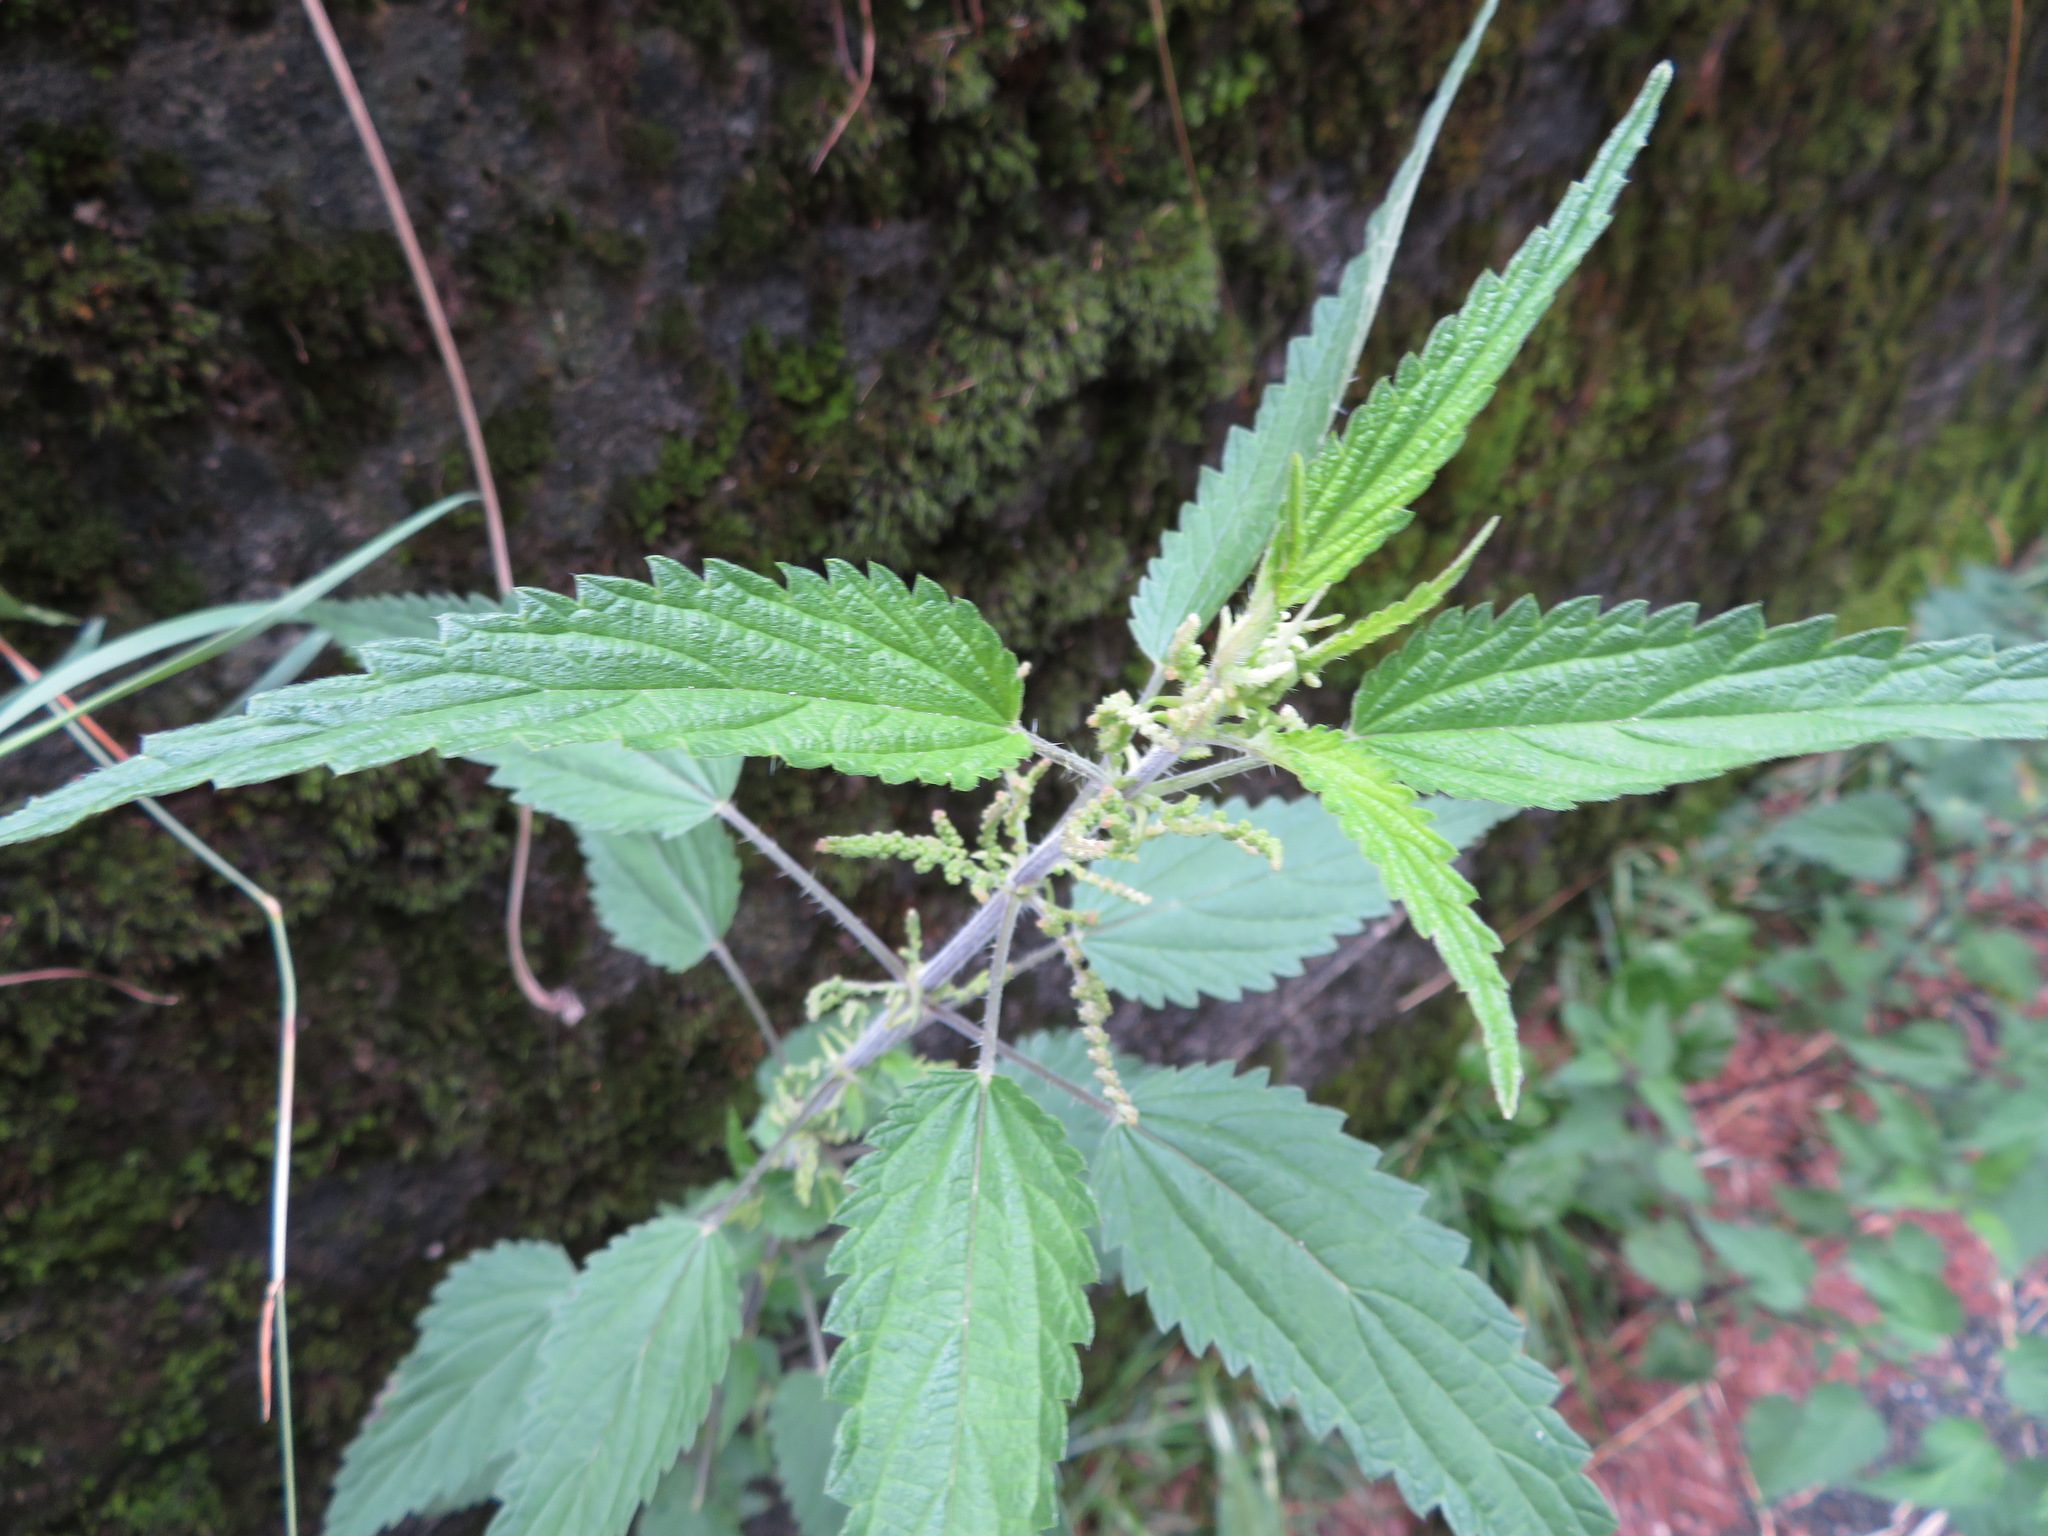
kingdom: Plantae
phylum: Tracheophyta
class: Magnoliopsida
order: Rosales
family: Urticaceae
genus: Urtica
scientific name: Urtica dioica
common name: Common nettle
